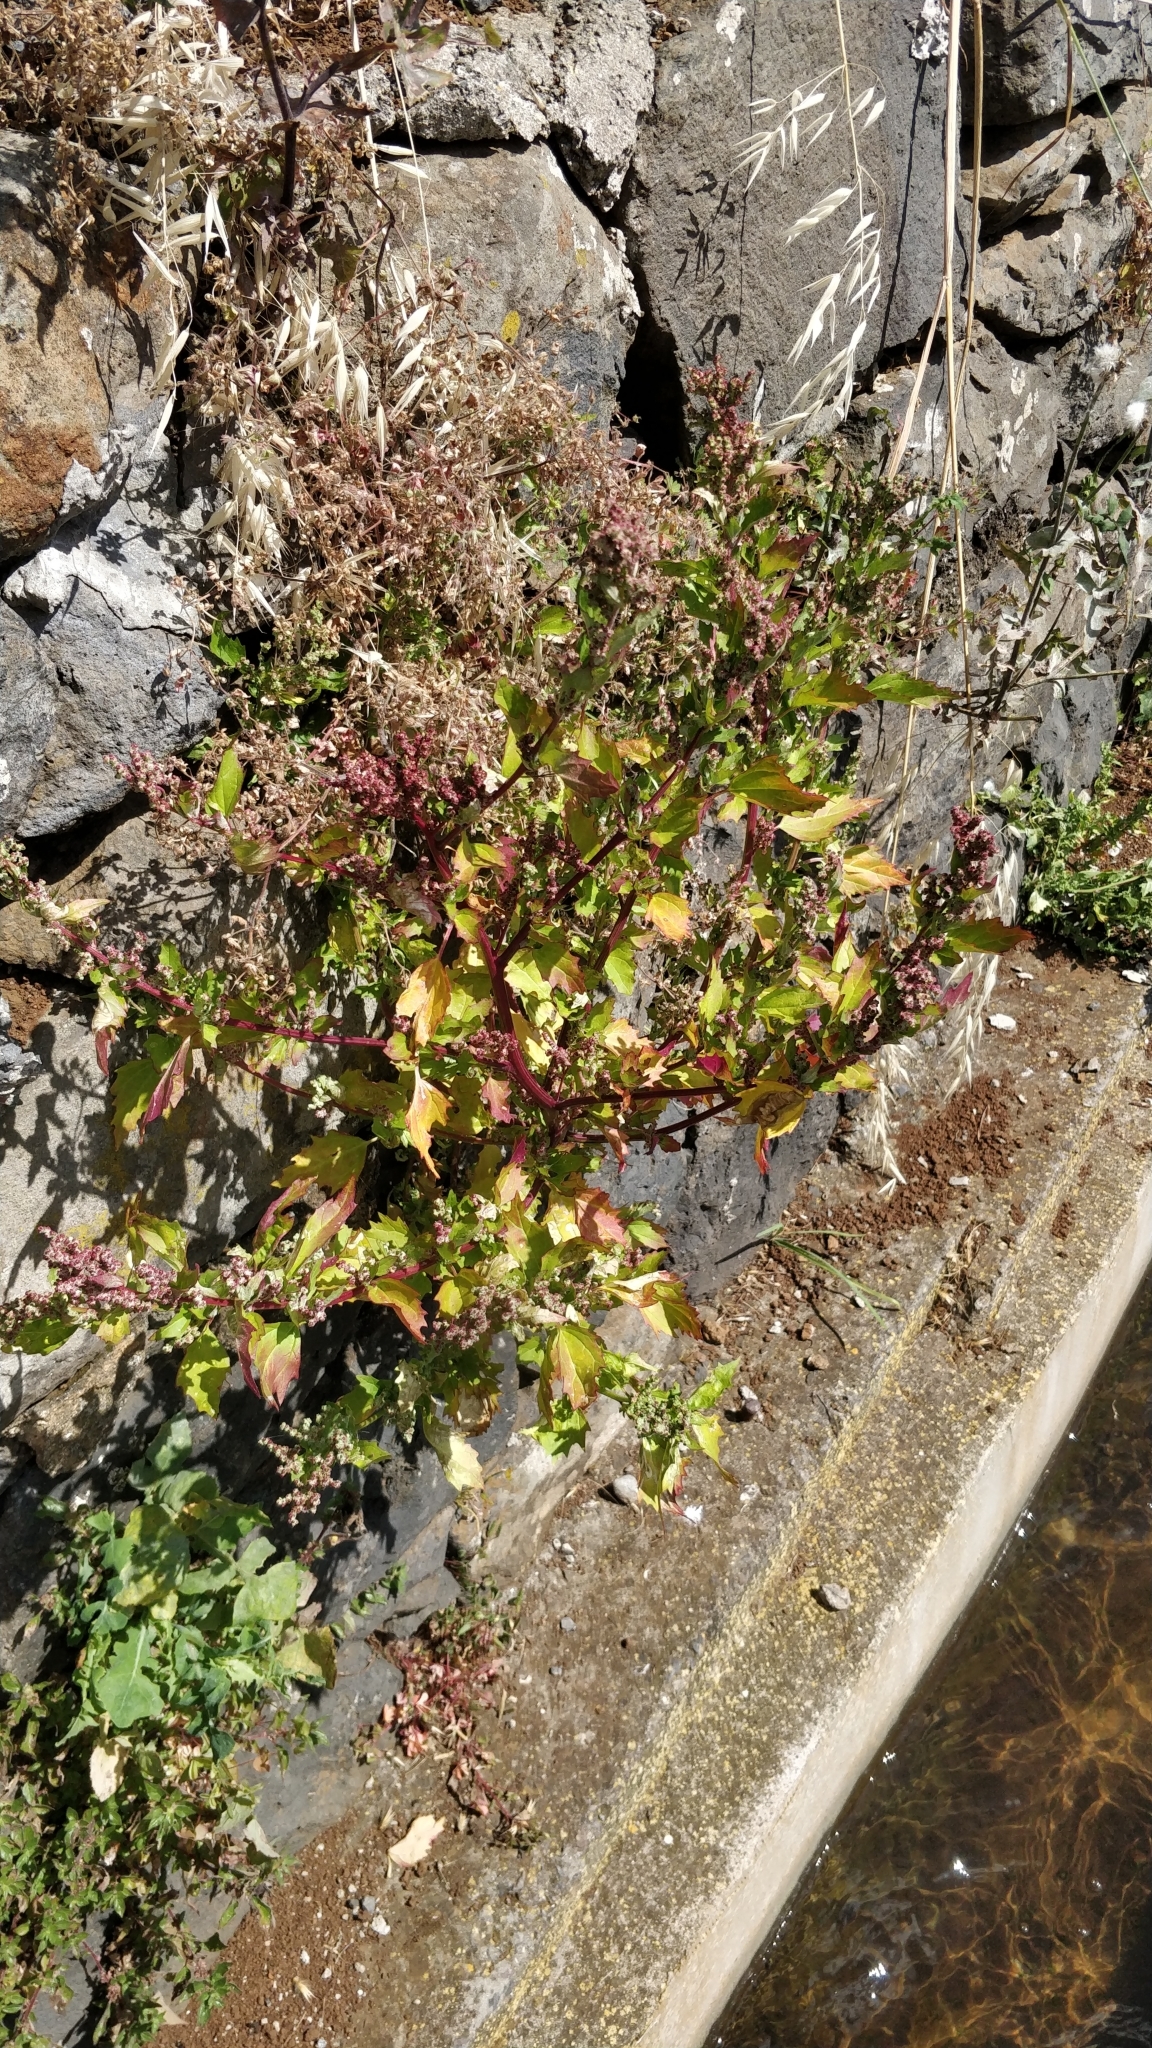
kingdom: Plantae
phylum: Tracheophyta
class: Magnoliopsida
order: Caryophyllales
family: Amaranthaceae
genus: Chenopodiastrum
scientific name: Chenopodiastrum murale
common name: Sowbane
